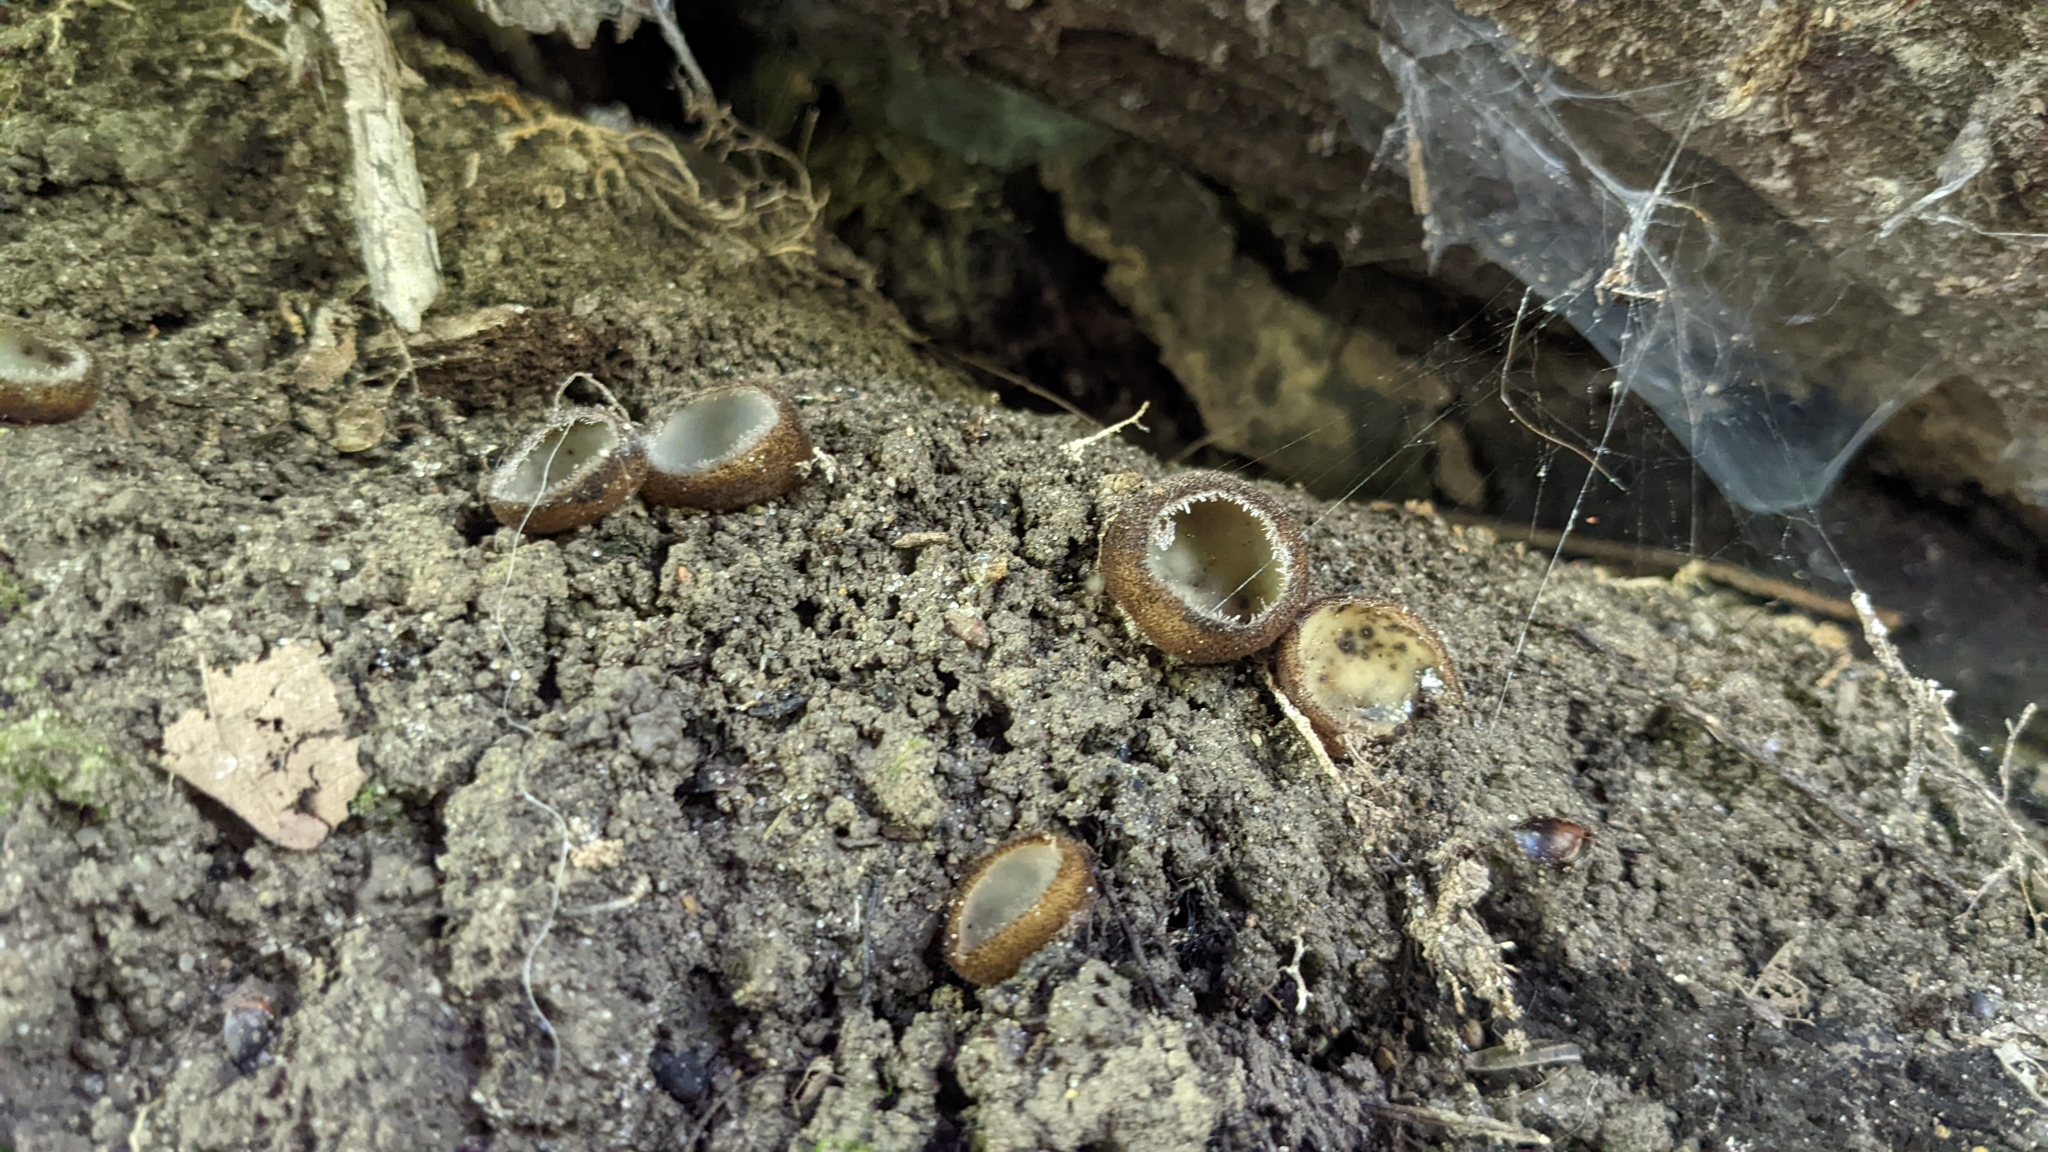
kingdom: Fungi
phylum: Ascomycota
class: Pezizomycetes
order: Pezizales
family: Pyronemataceae
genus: Humaria
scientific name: Humaria hemisphaerica
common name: Glazed cup
